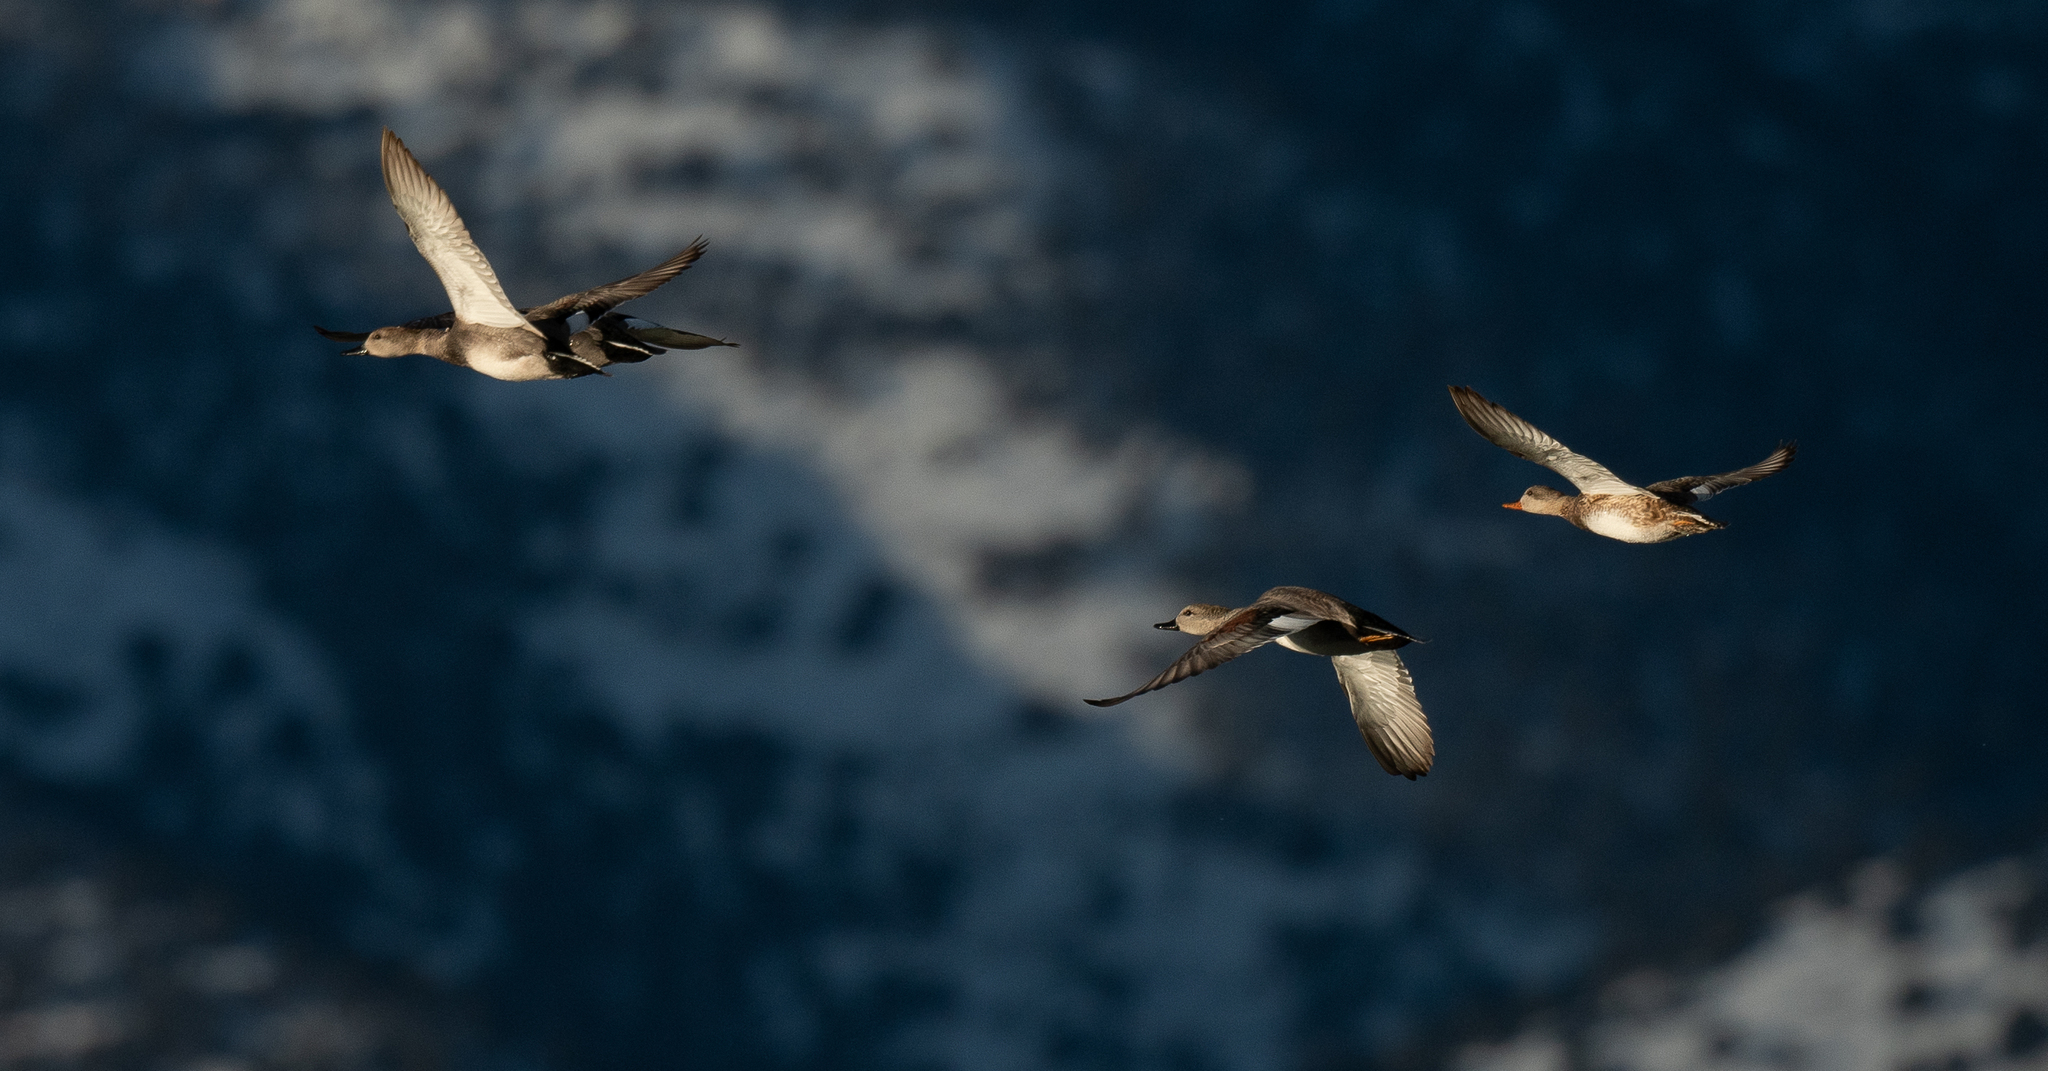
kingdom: Animalia
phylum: Chordata
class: Aves
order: Anseriformes
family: Anatidae
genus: Mareca
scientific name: Mareca strepera
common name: Gadwall
